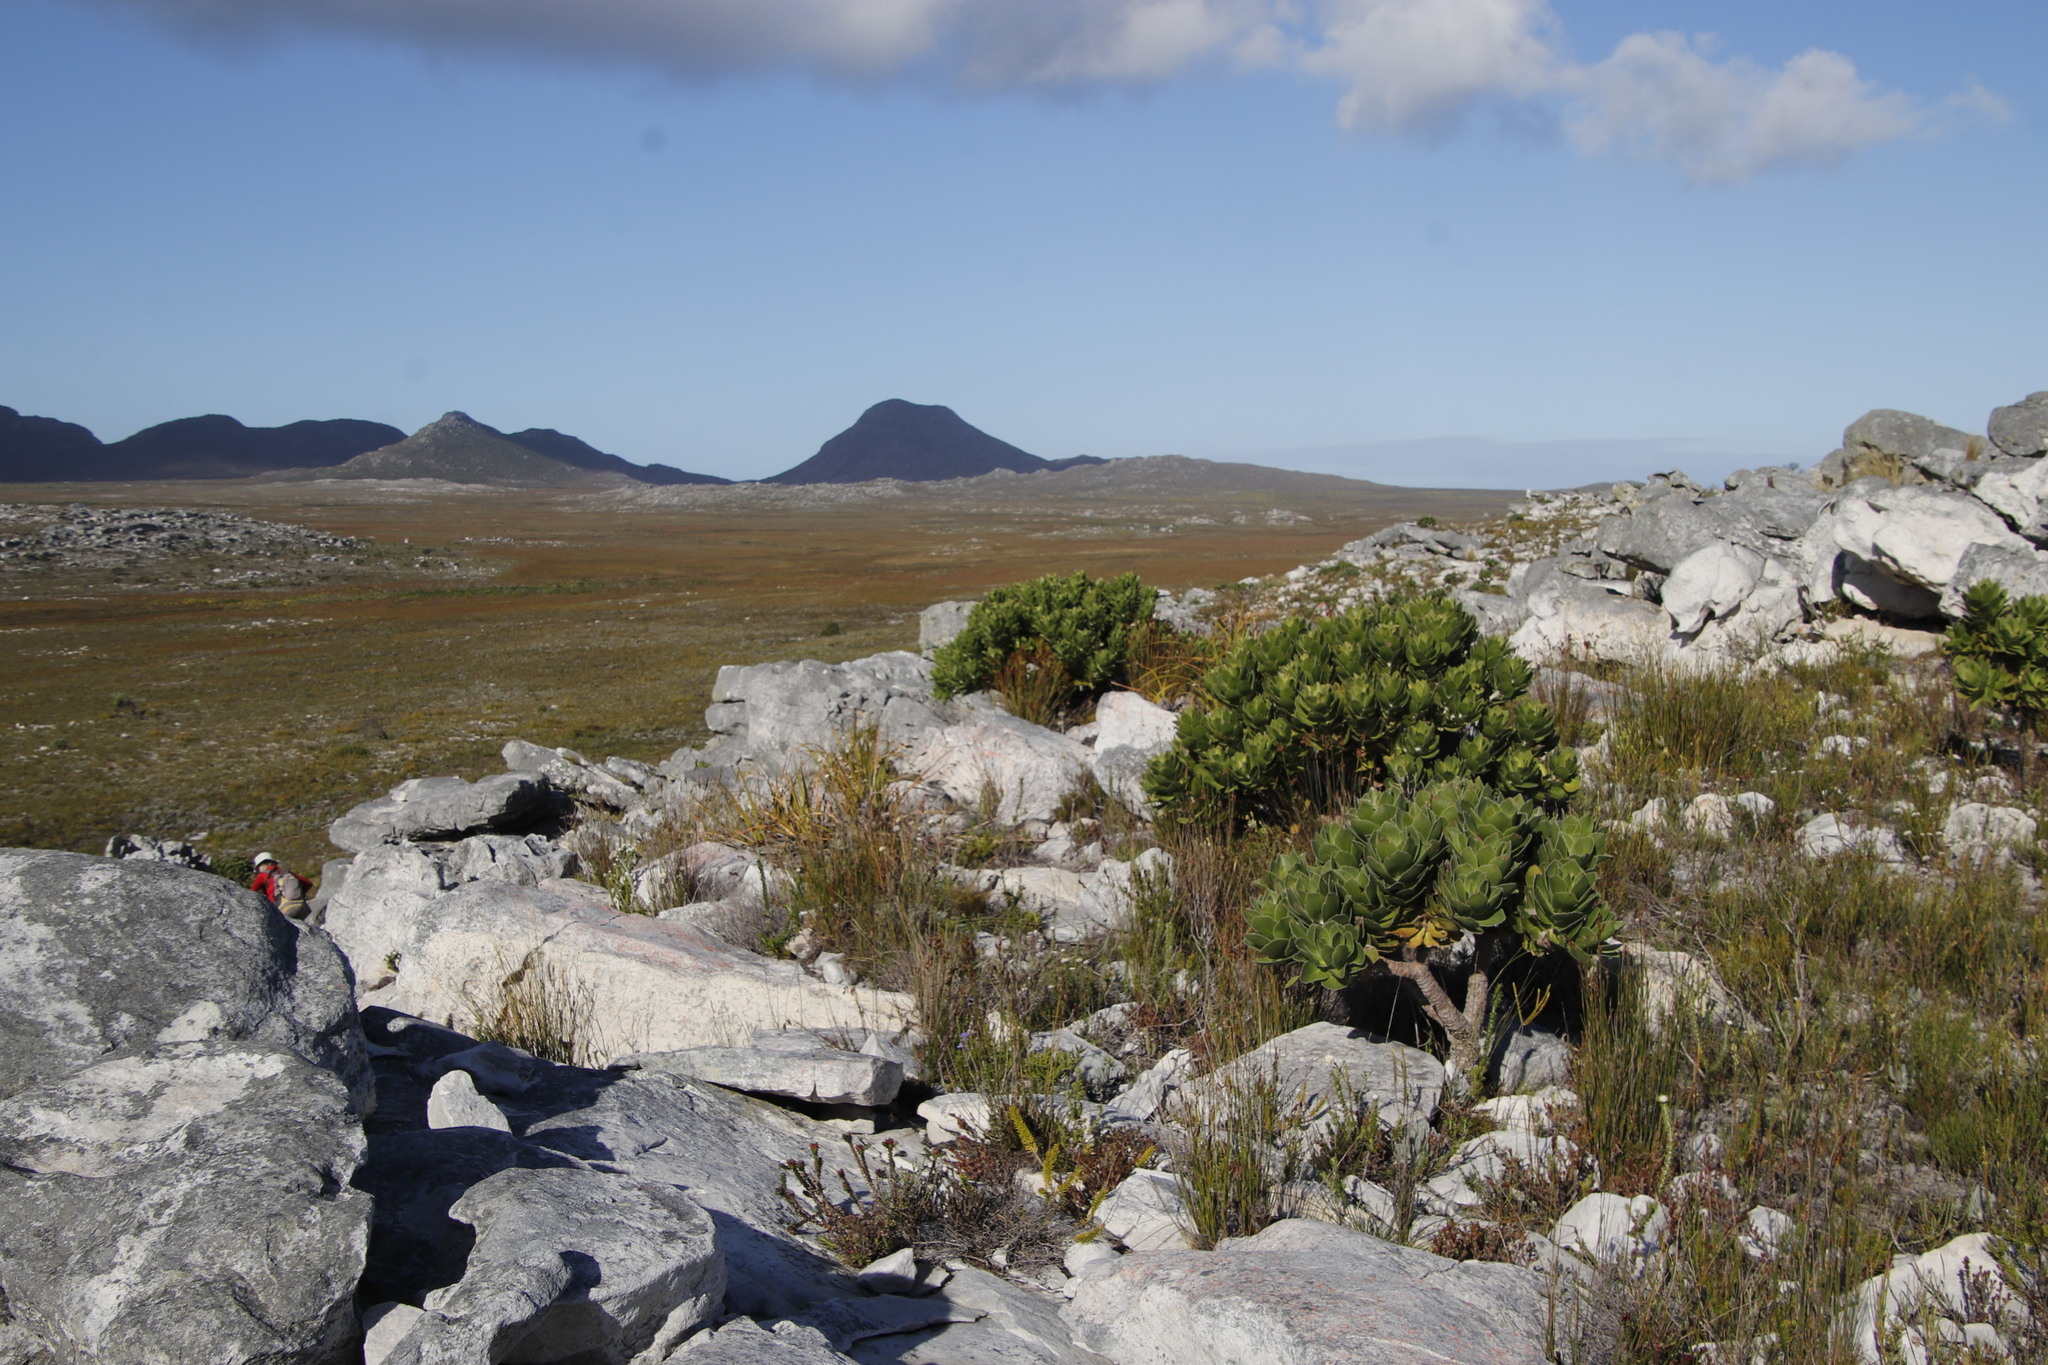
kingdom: Plantae
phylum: Tracheophyta
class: Magnoliopsida
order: Proteales
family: Proteaceae
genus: Leucospermum
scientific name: Leucospermum conocarpodendron
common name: Tree pincushion
